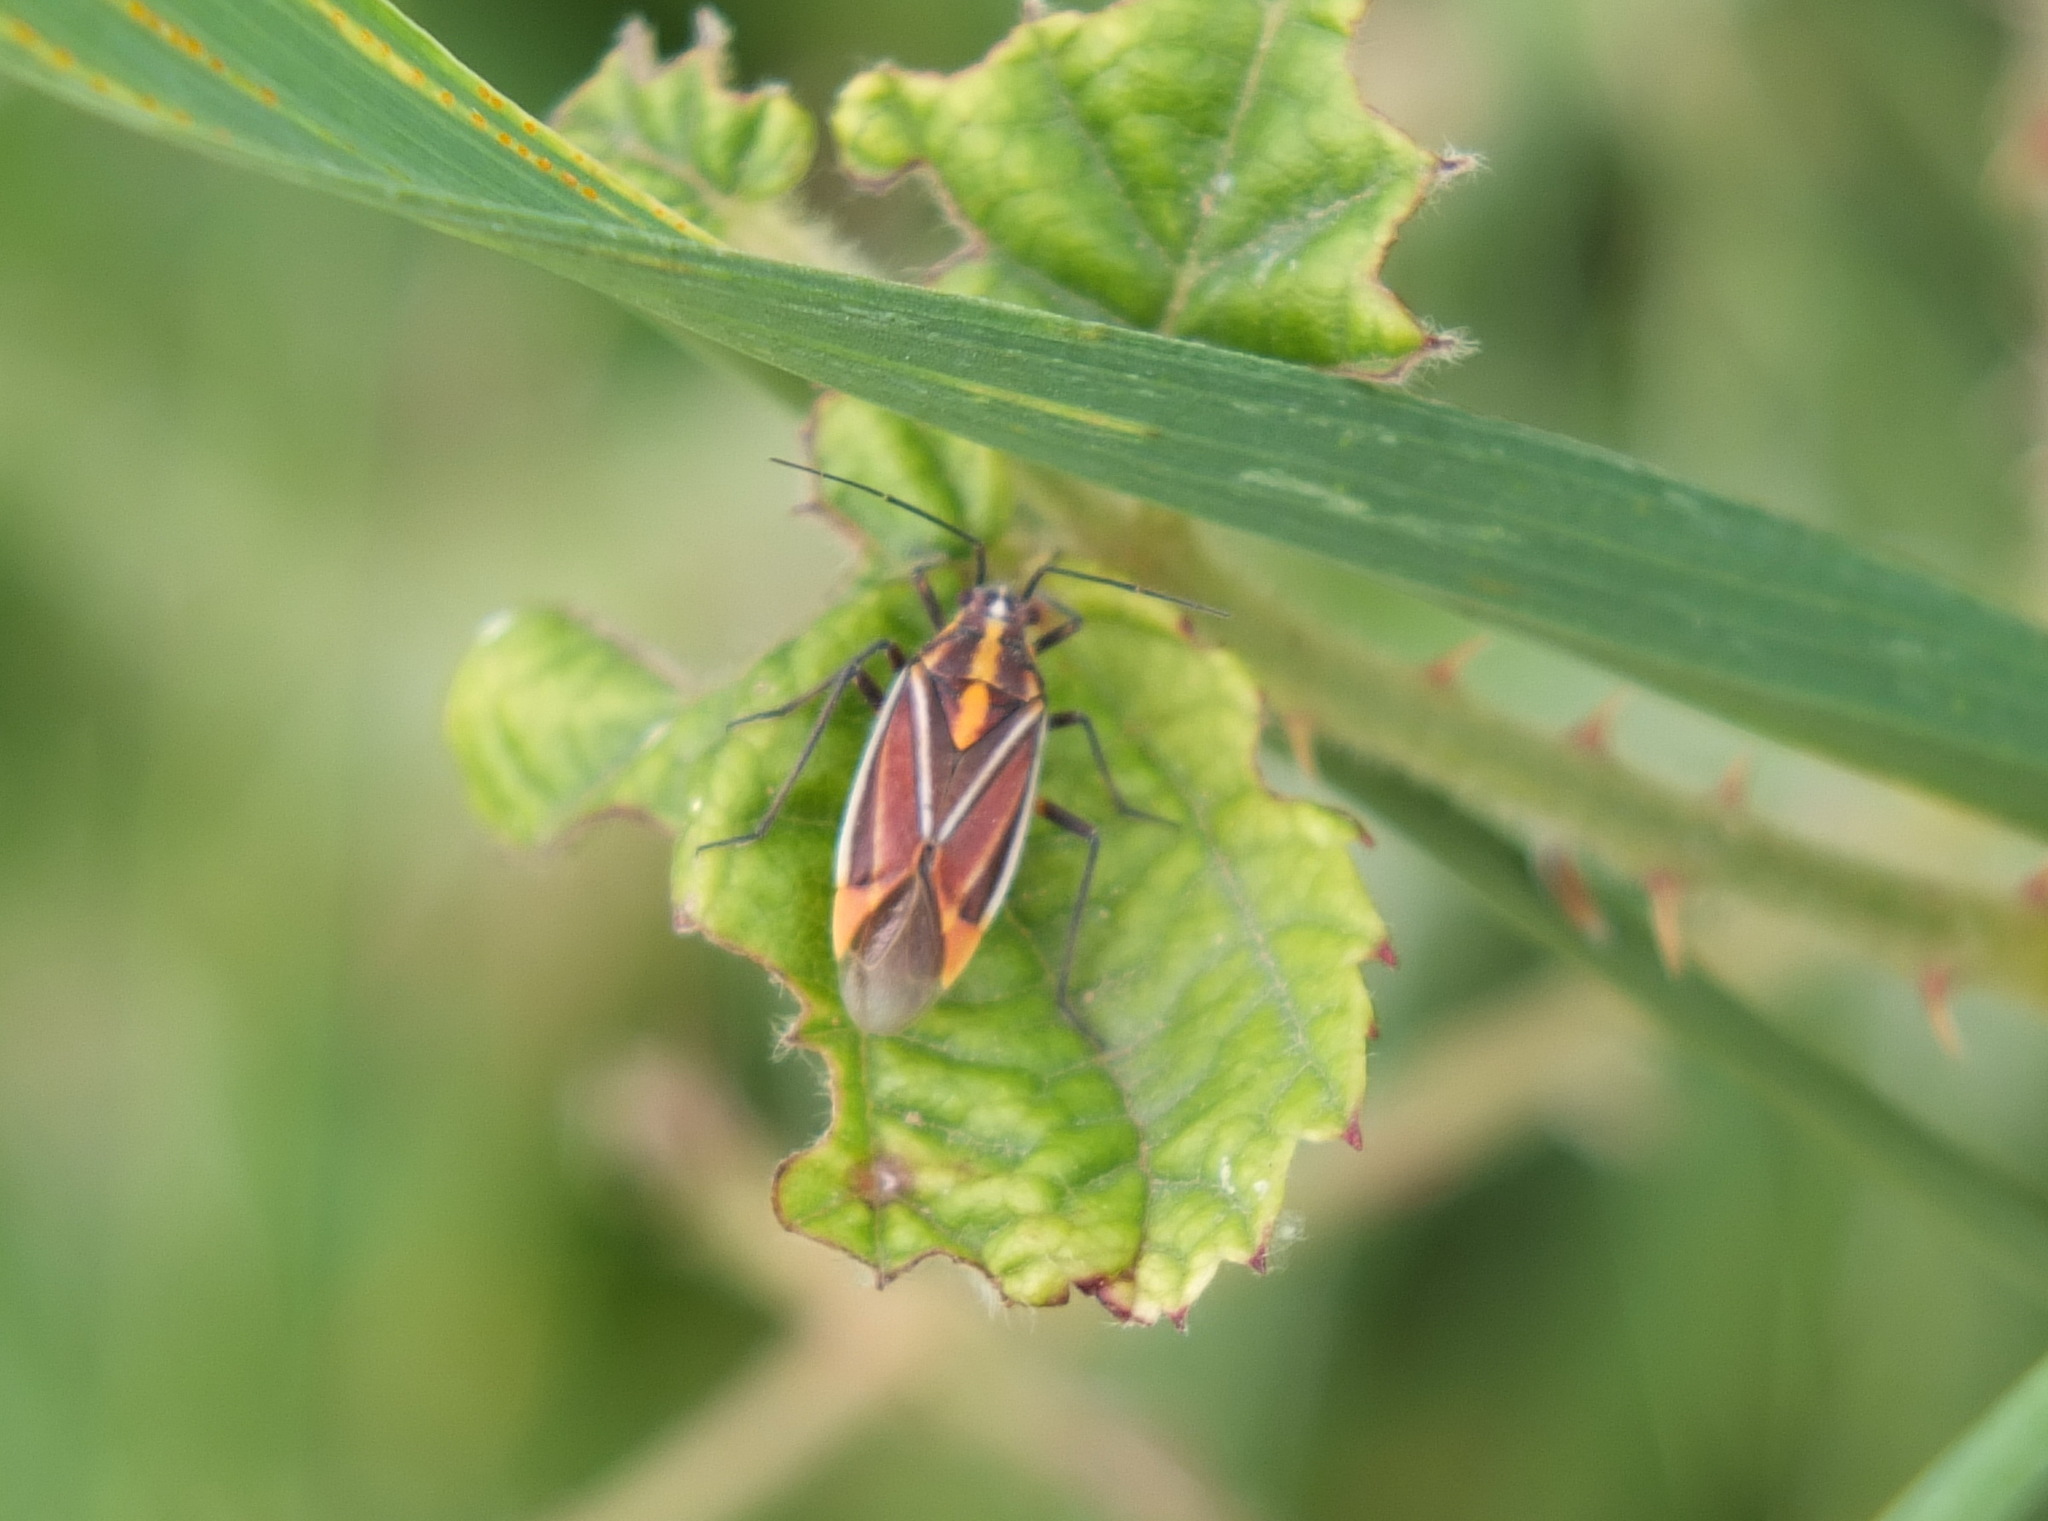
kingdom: Animalia
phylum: Arthropoda
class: Insecta
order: Hemiptera
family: Miridae
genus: Horistus
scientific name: Horistus orientalis
